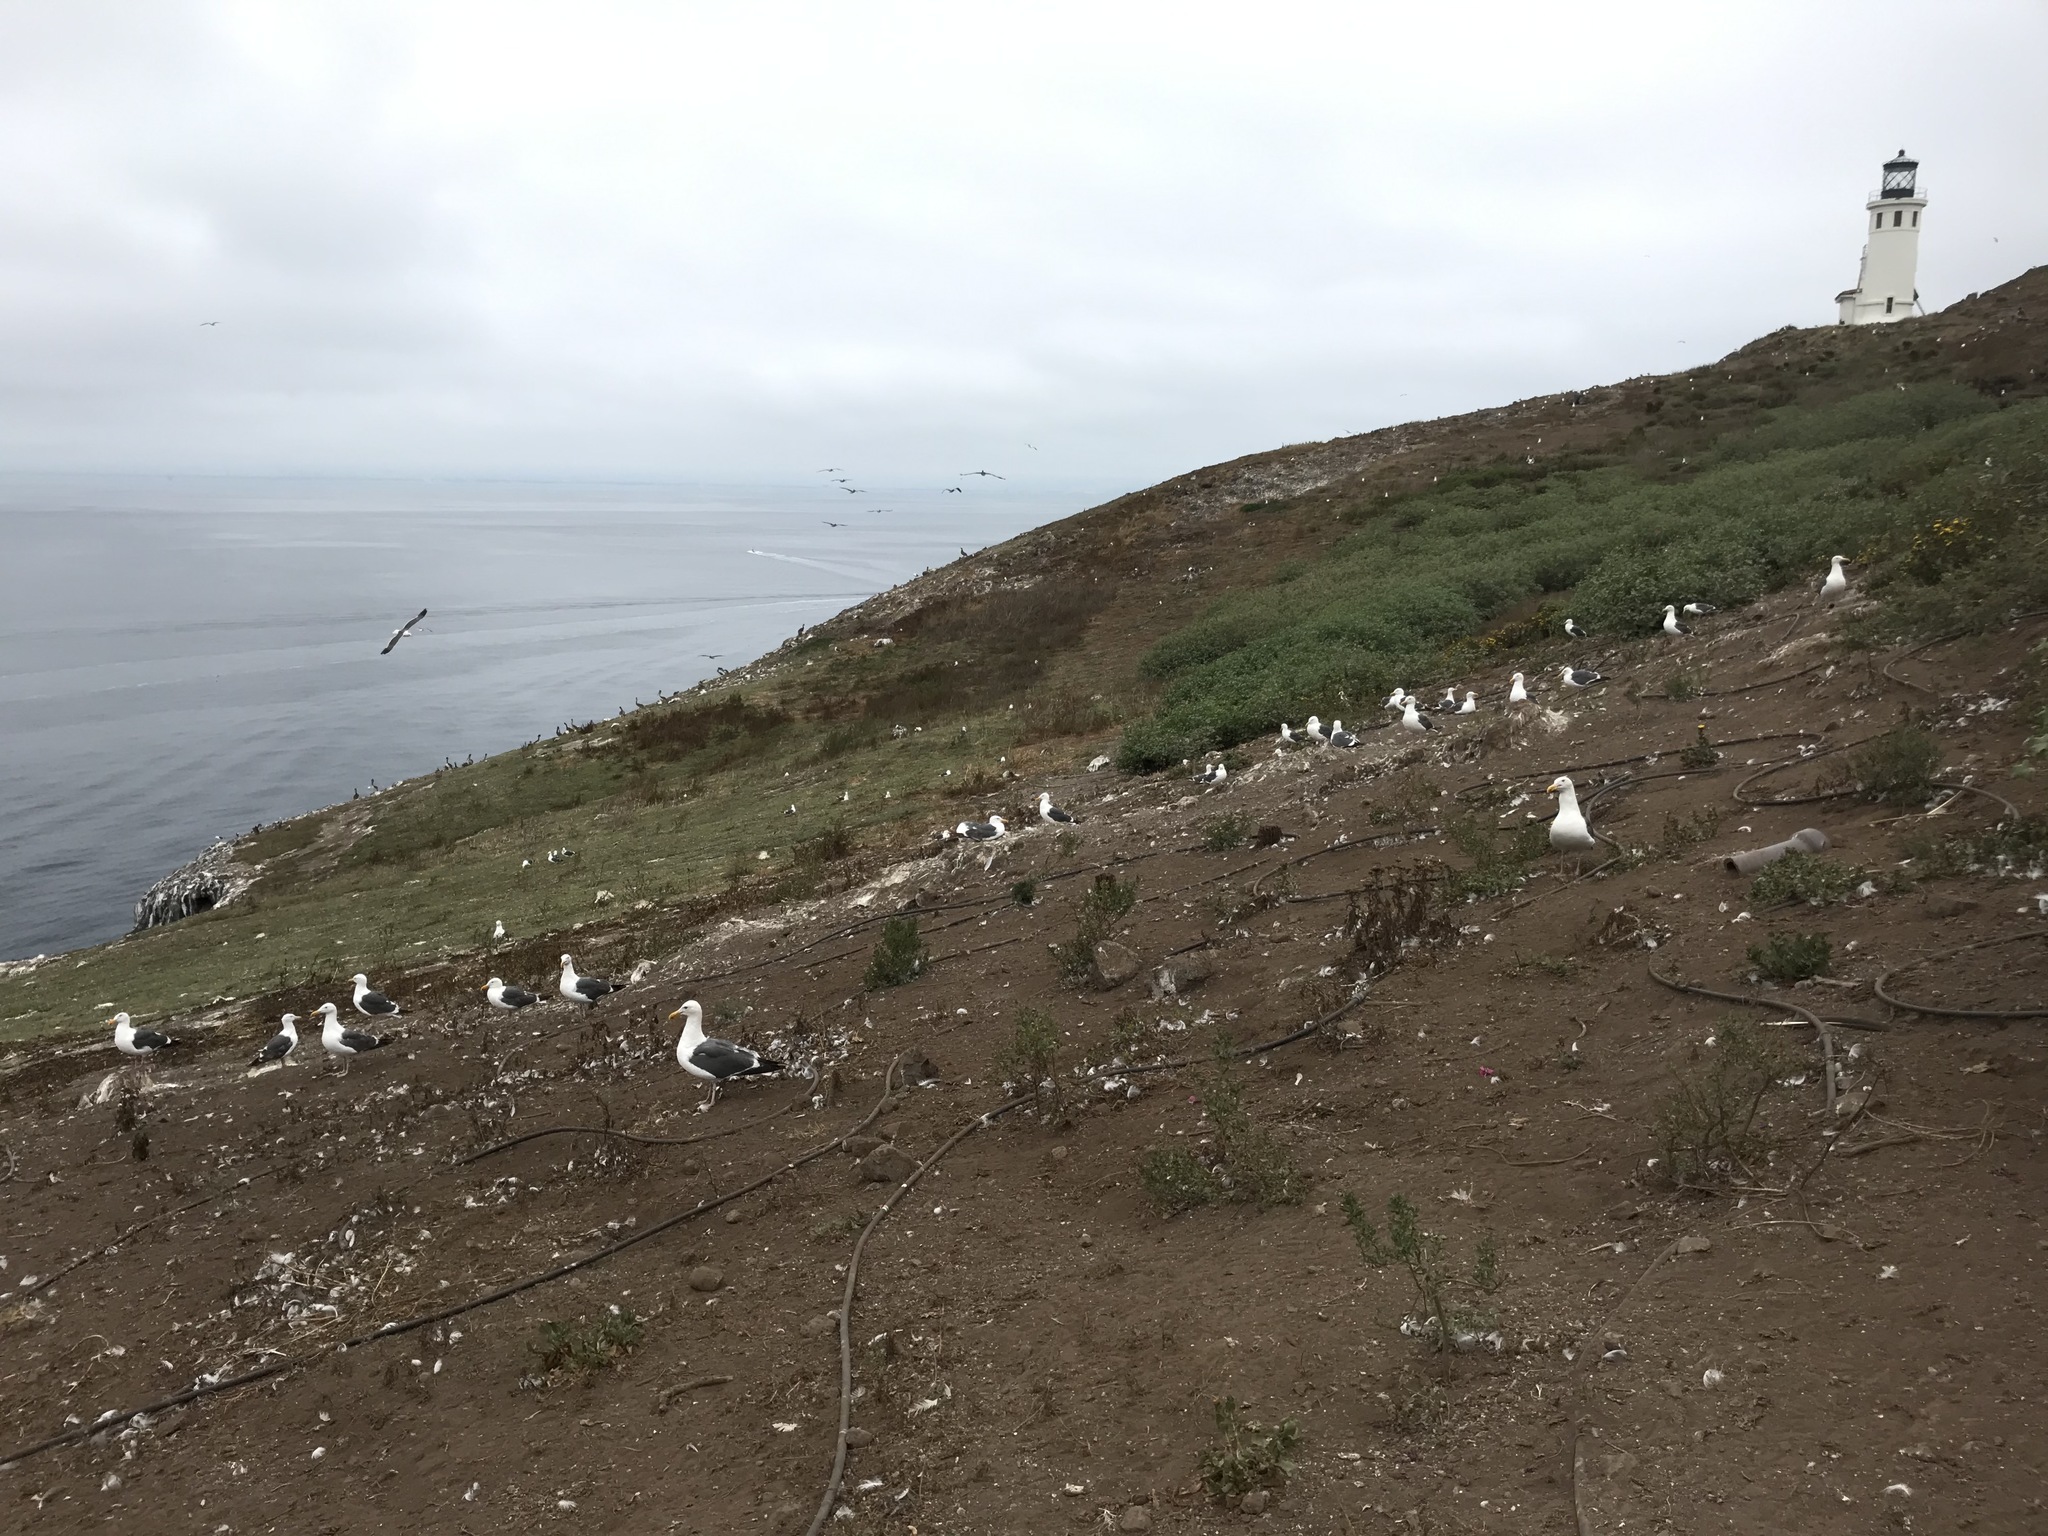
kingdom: Animalia
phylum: Chordata
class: Aves
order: Charadriiformes
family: Laridae
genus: Larus
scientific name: Larus occidentalis
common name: Western gull
